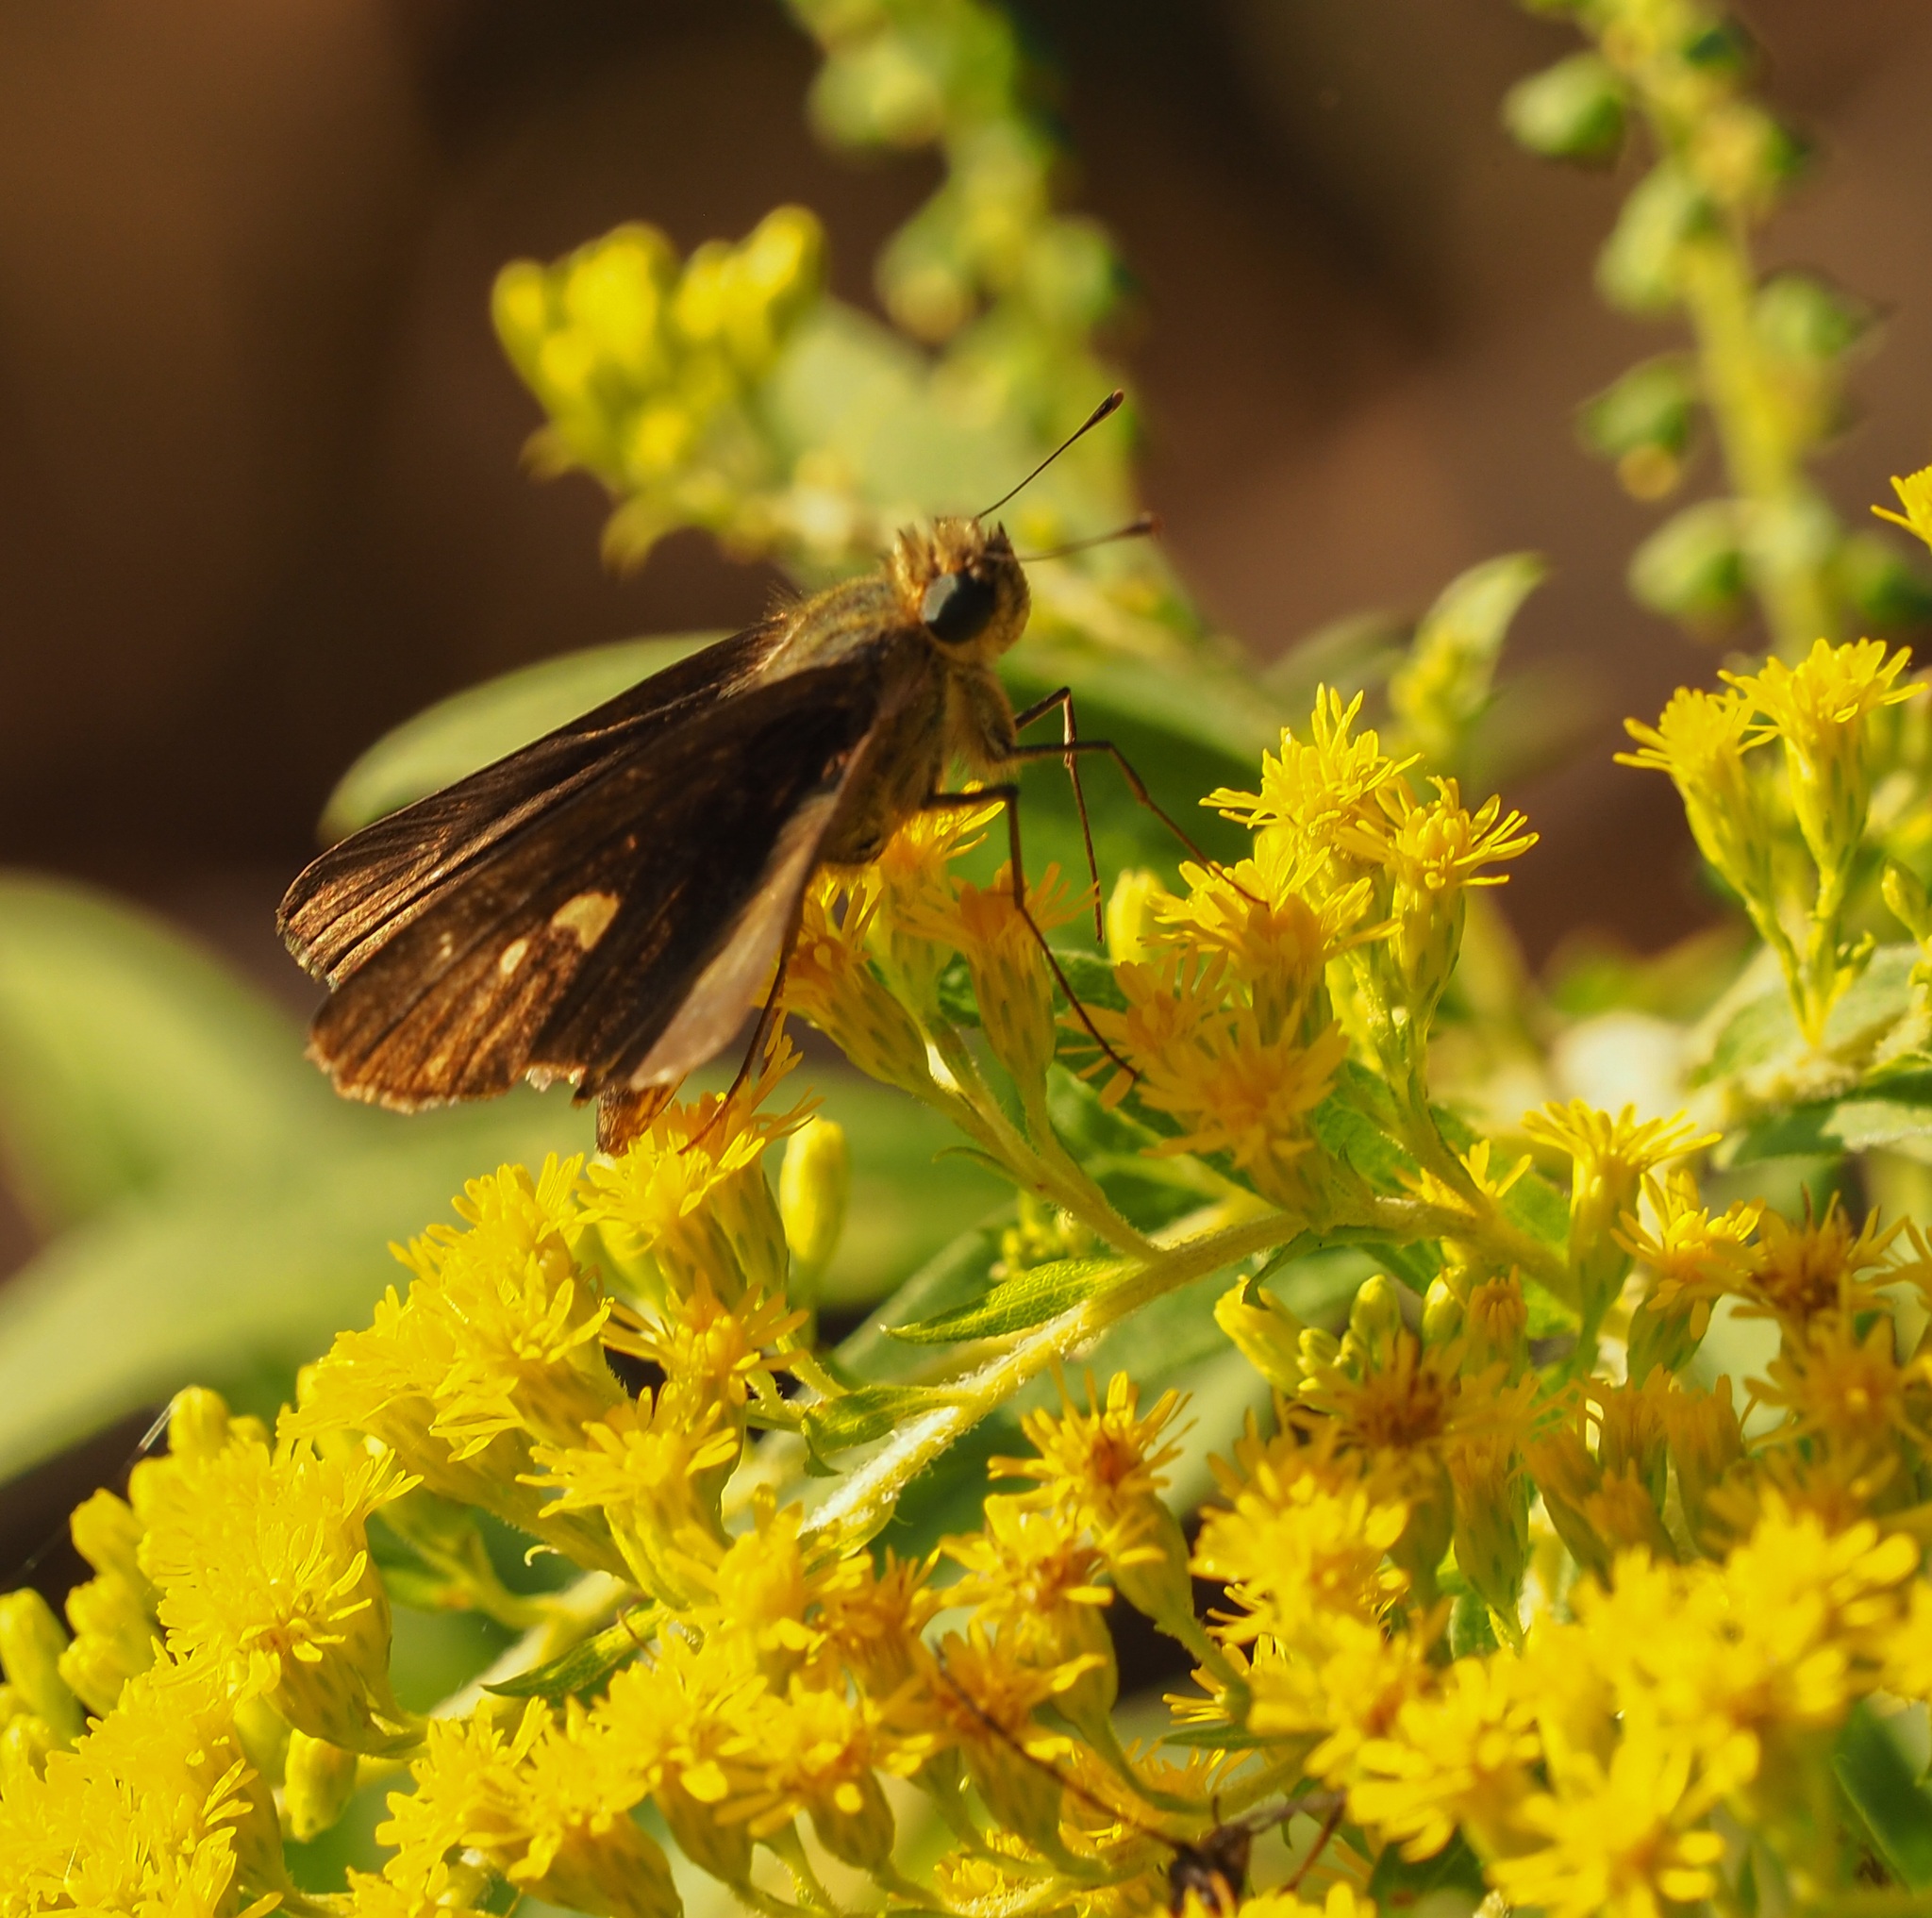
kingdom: Animalia
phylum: Arthropoda
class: Insecta
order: Lepidoptera
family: Hesperiidae
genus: Panoquina
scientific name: Panoquina ocola
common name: Ocola skipper
